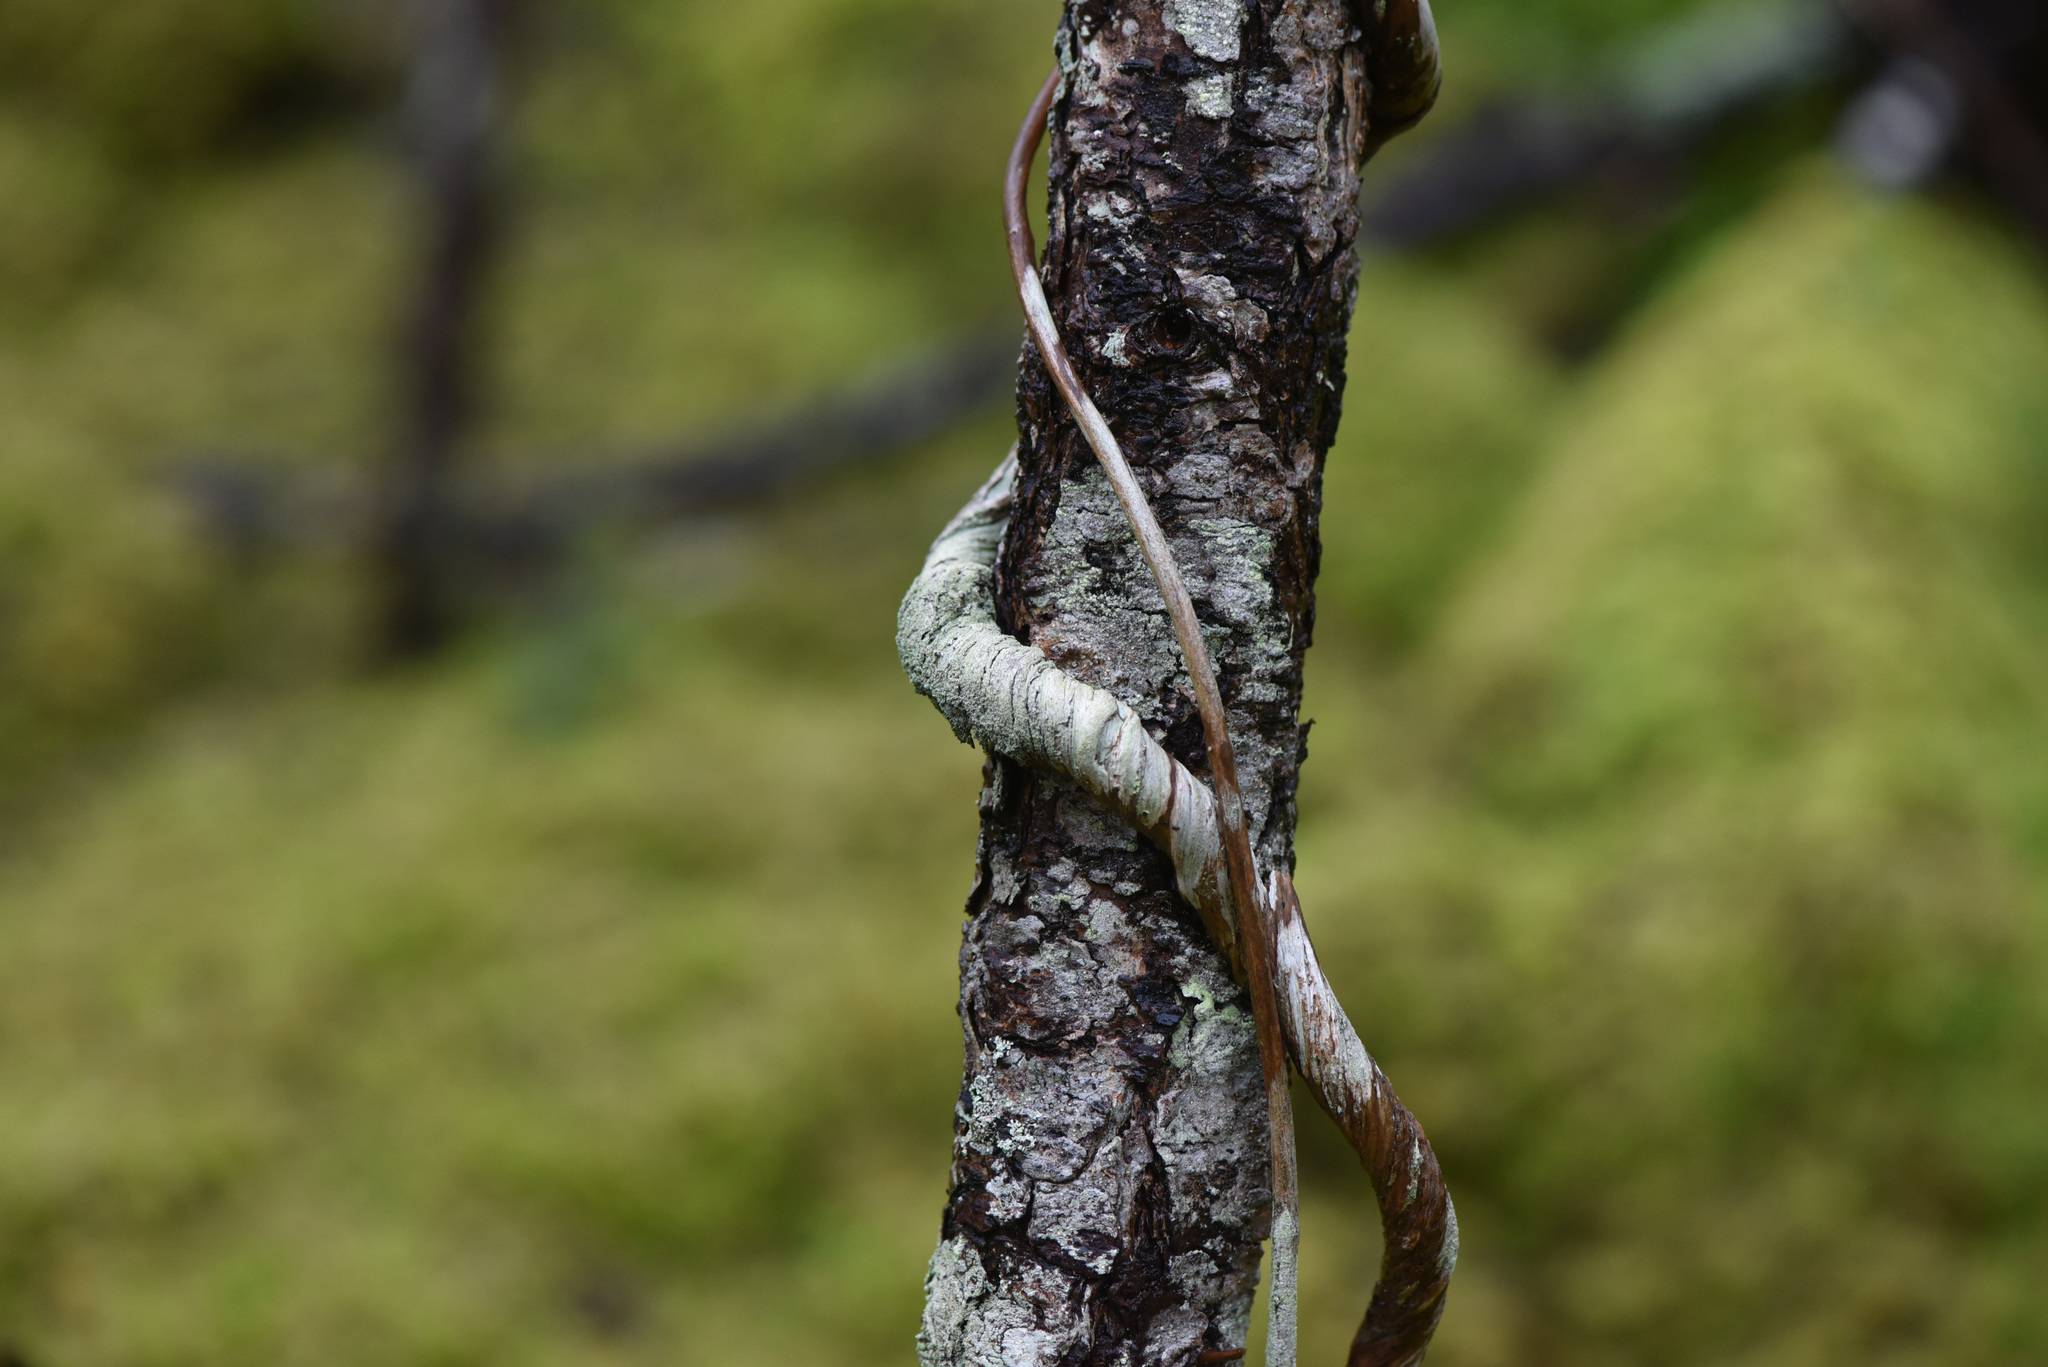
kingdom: Fungi
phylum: Ascomycota
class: Lecanoromycetes
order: Pertusariales
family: Pertusariaceae
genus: Loxosporopsis
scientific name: Loxosporopsis corallifera
